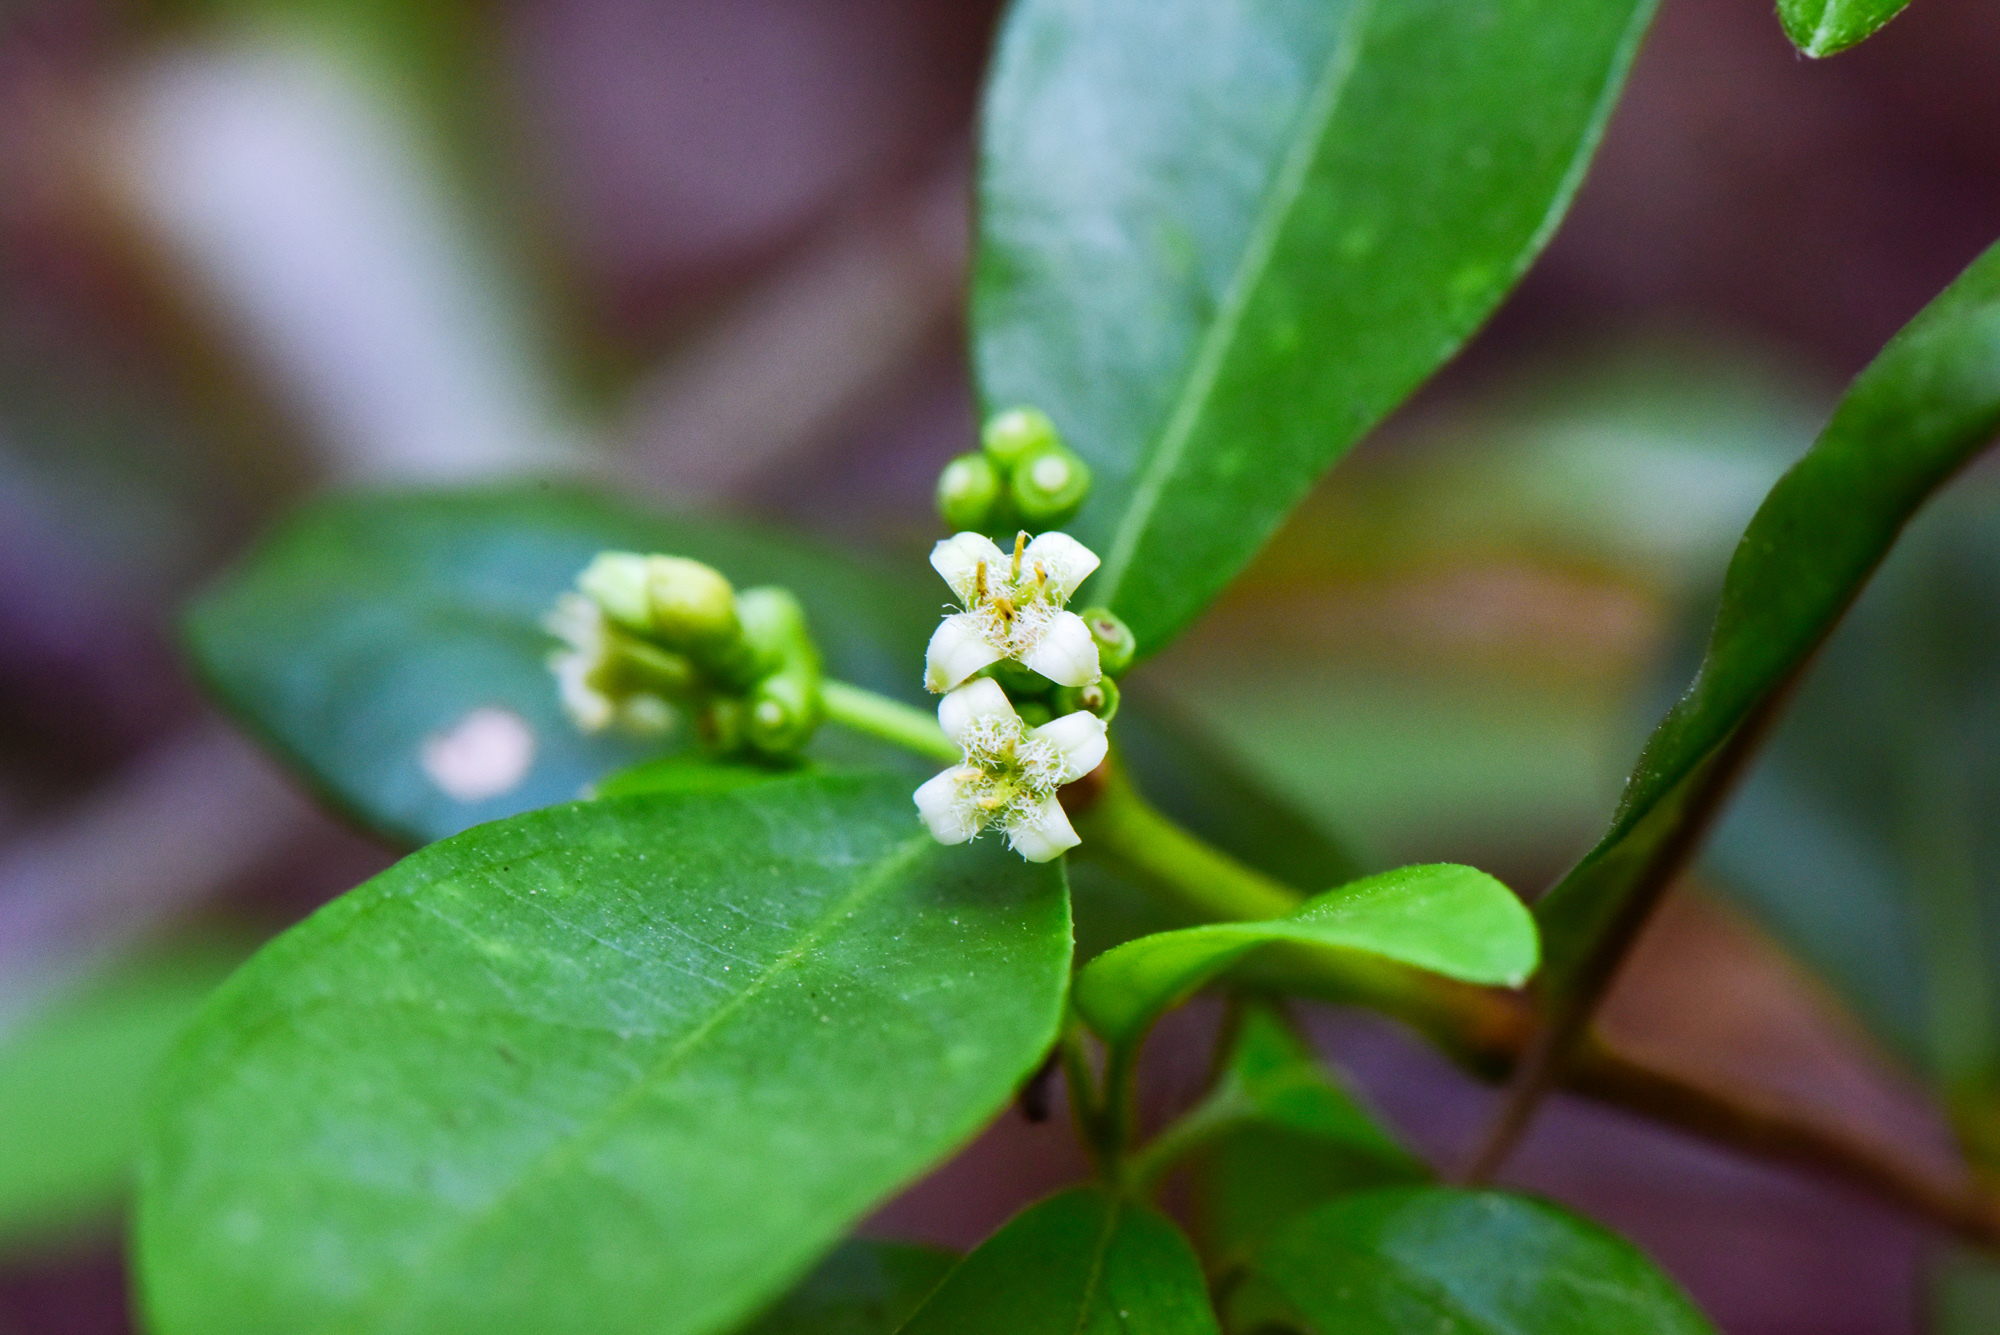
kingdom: Plantae
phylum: Tracheophyta
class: Magnoliopsida
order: Gentianales
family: Rubiaceae
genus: Gynochthodes
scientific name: Gynochthodes umbellata
